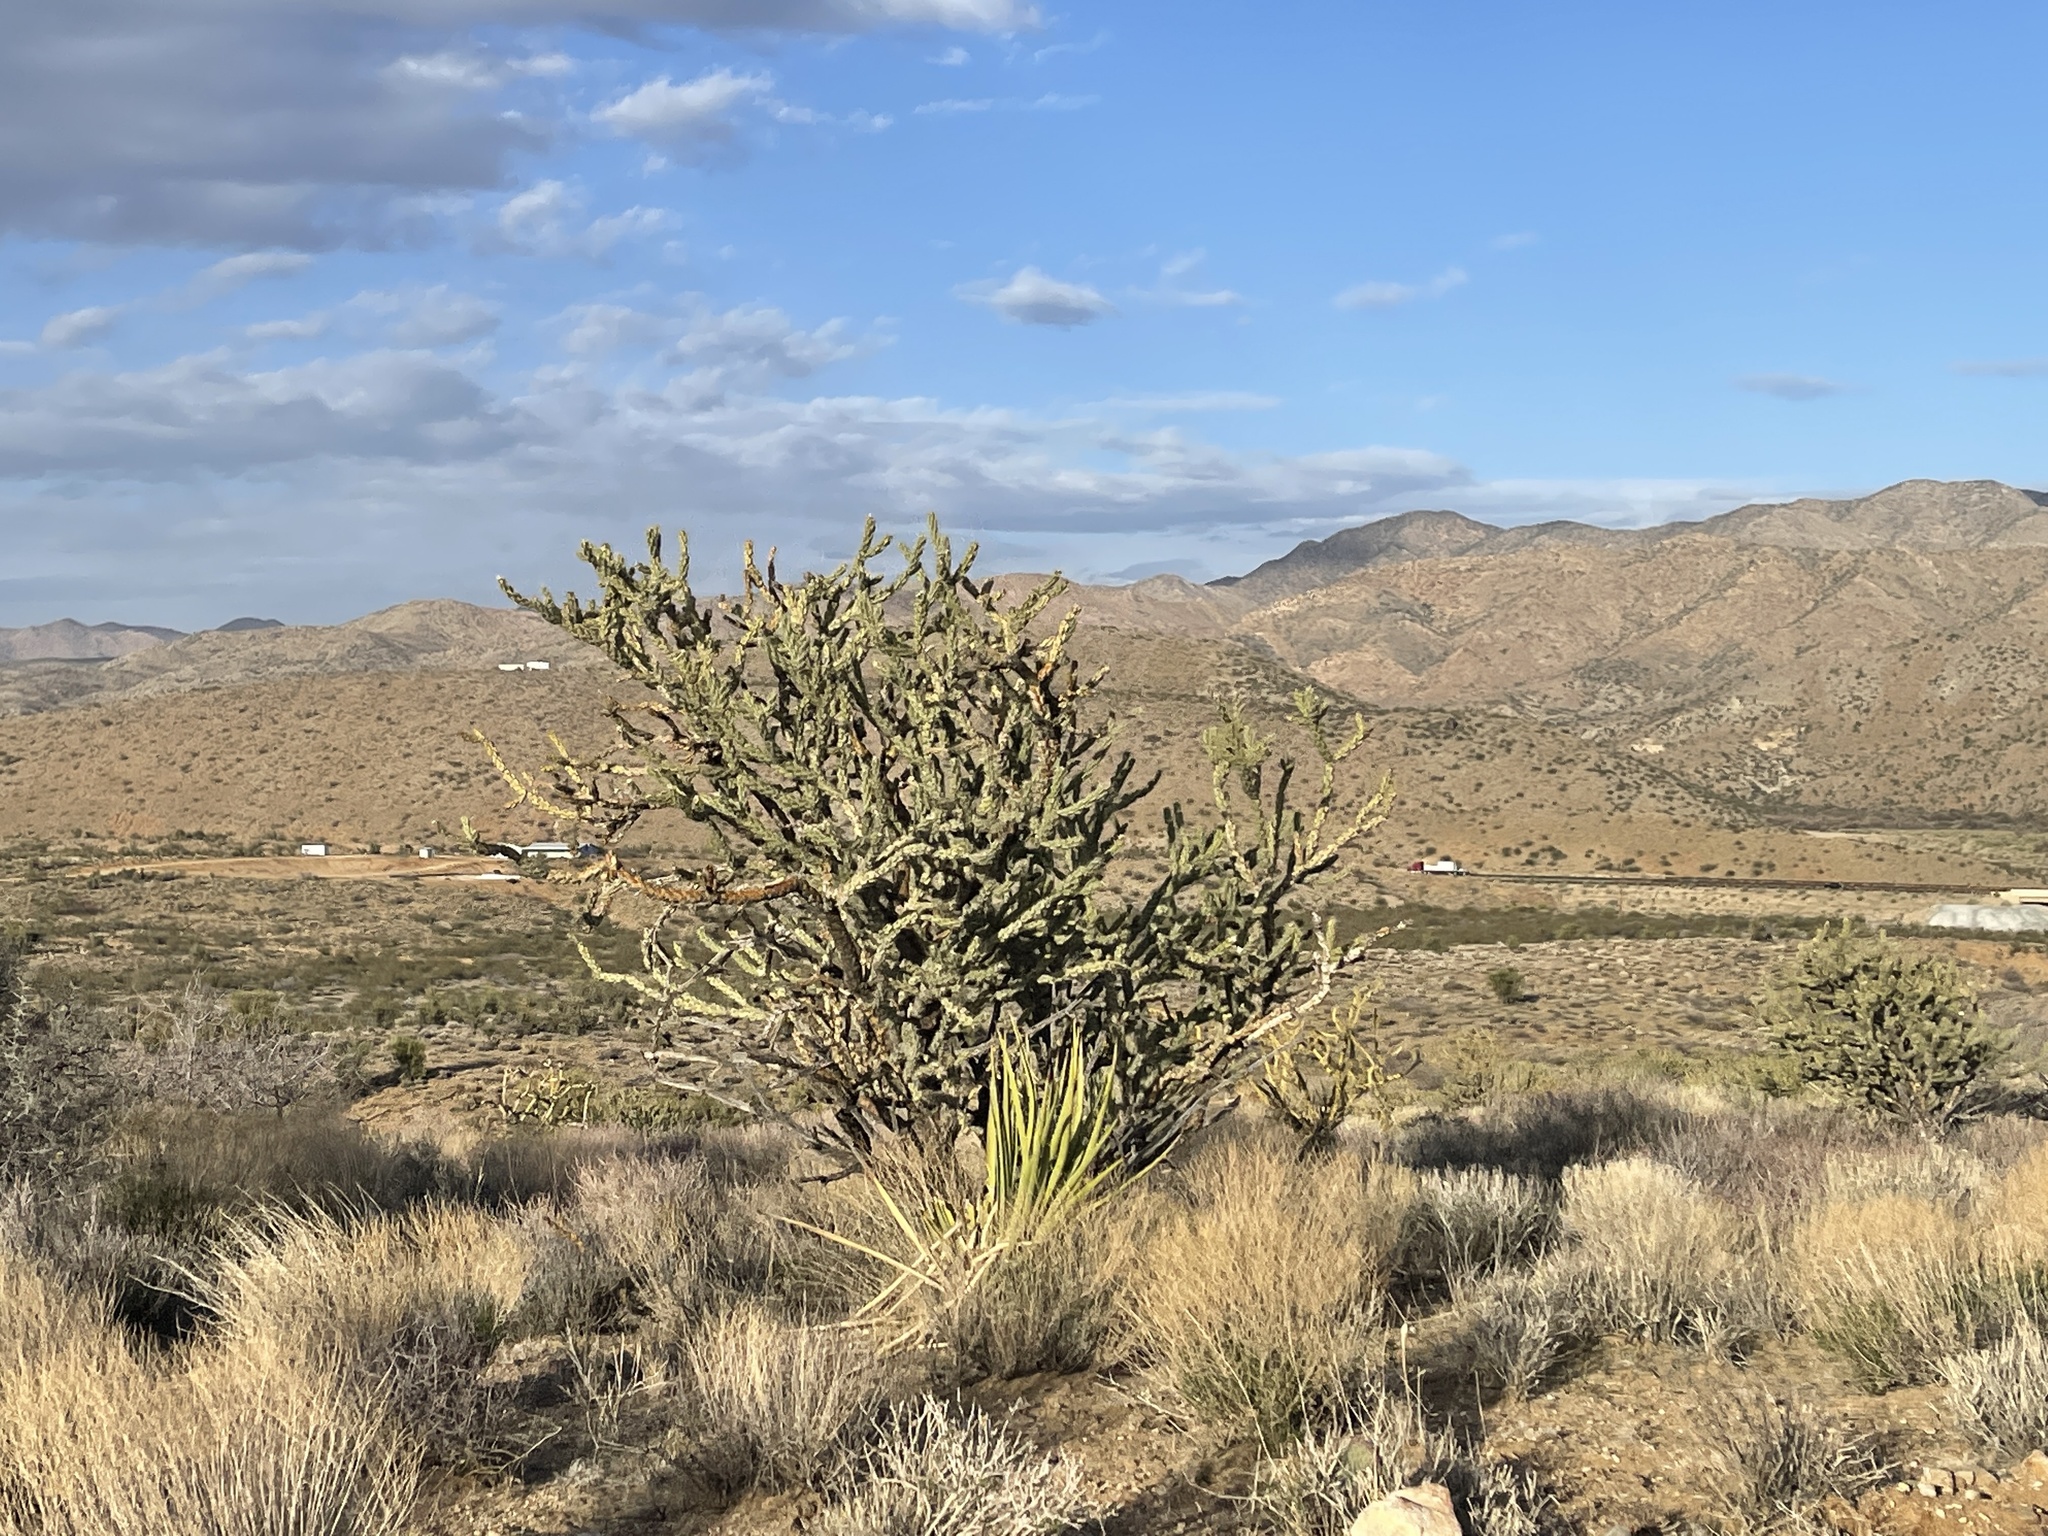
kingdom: Plantae
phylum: Tracheophyta
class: Magnoliopsida
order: Caryophyllales
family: Cactaceae
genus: Cylindropuntia
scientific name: Cylindropuntia acanthocarpa
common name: Buckhorn cholla
